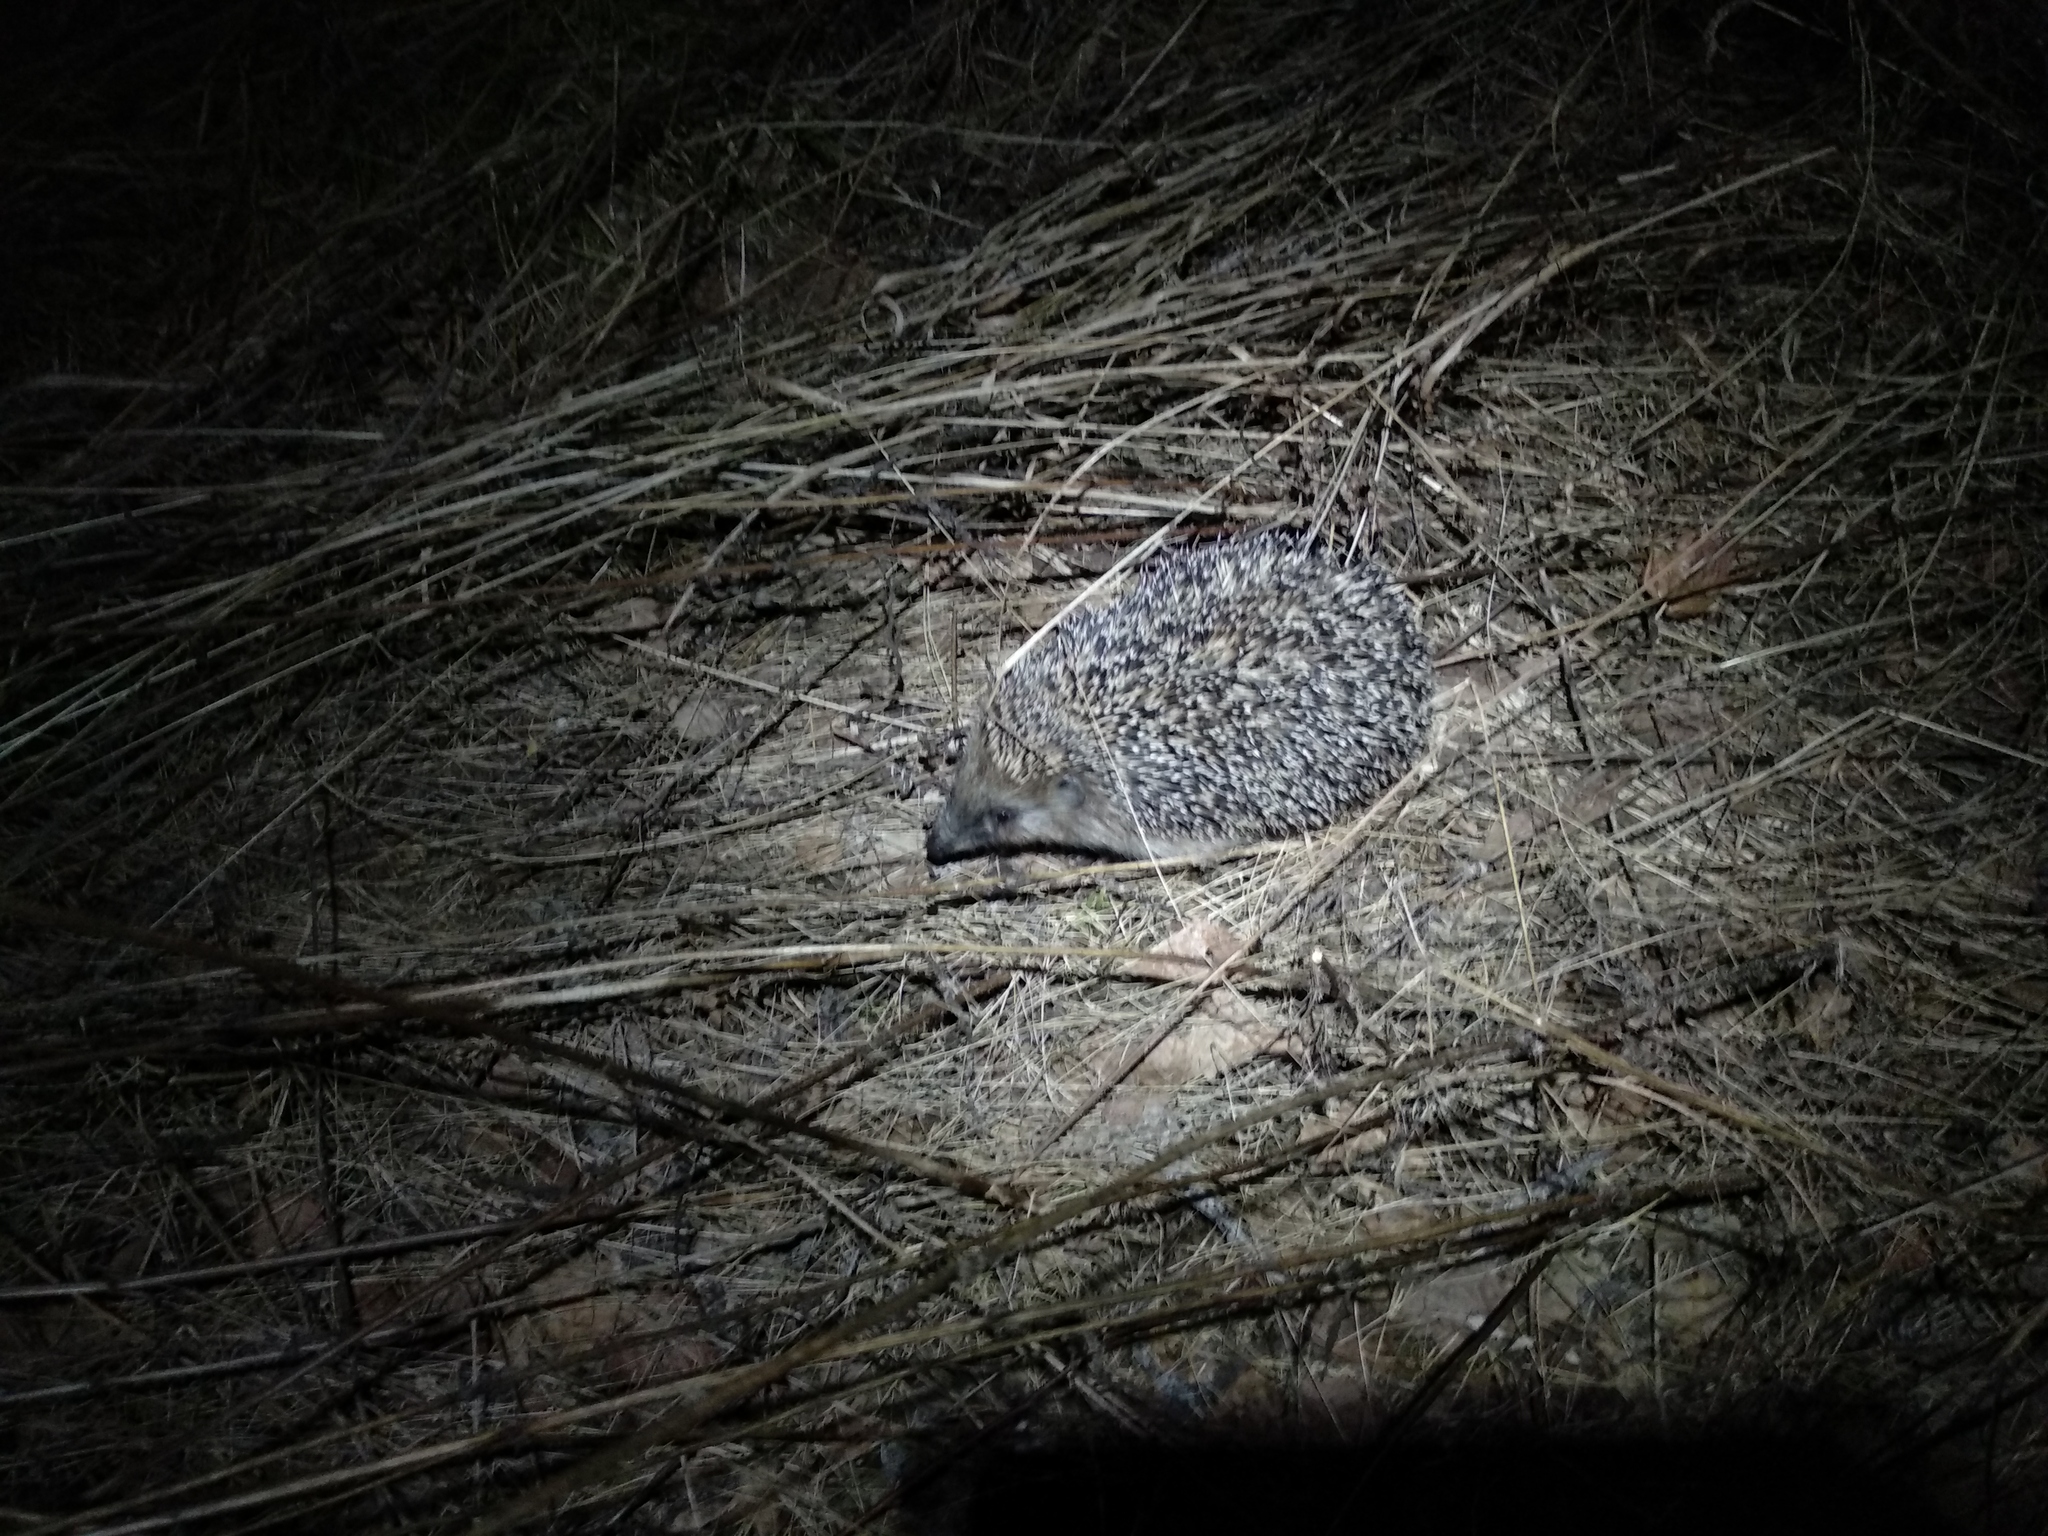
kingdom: Animalia
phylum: Chordata
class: Mammalia
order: Erinaceomorpha
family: Erinaceidae
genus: Erinaceus
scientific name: Erinaceus roumanicus
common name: Northern white-breasted hedgehog
